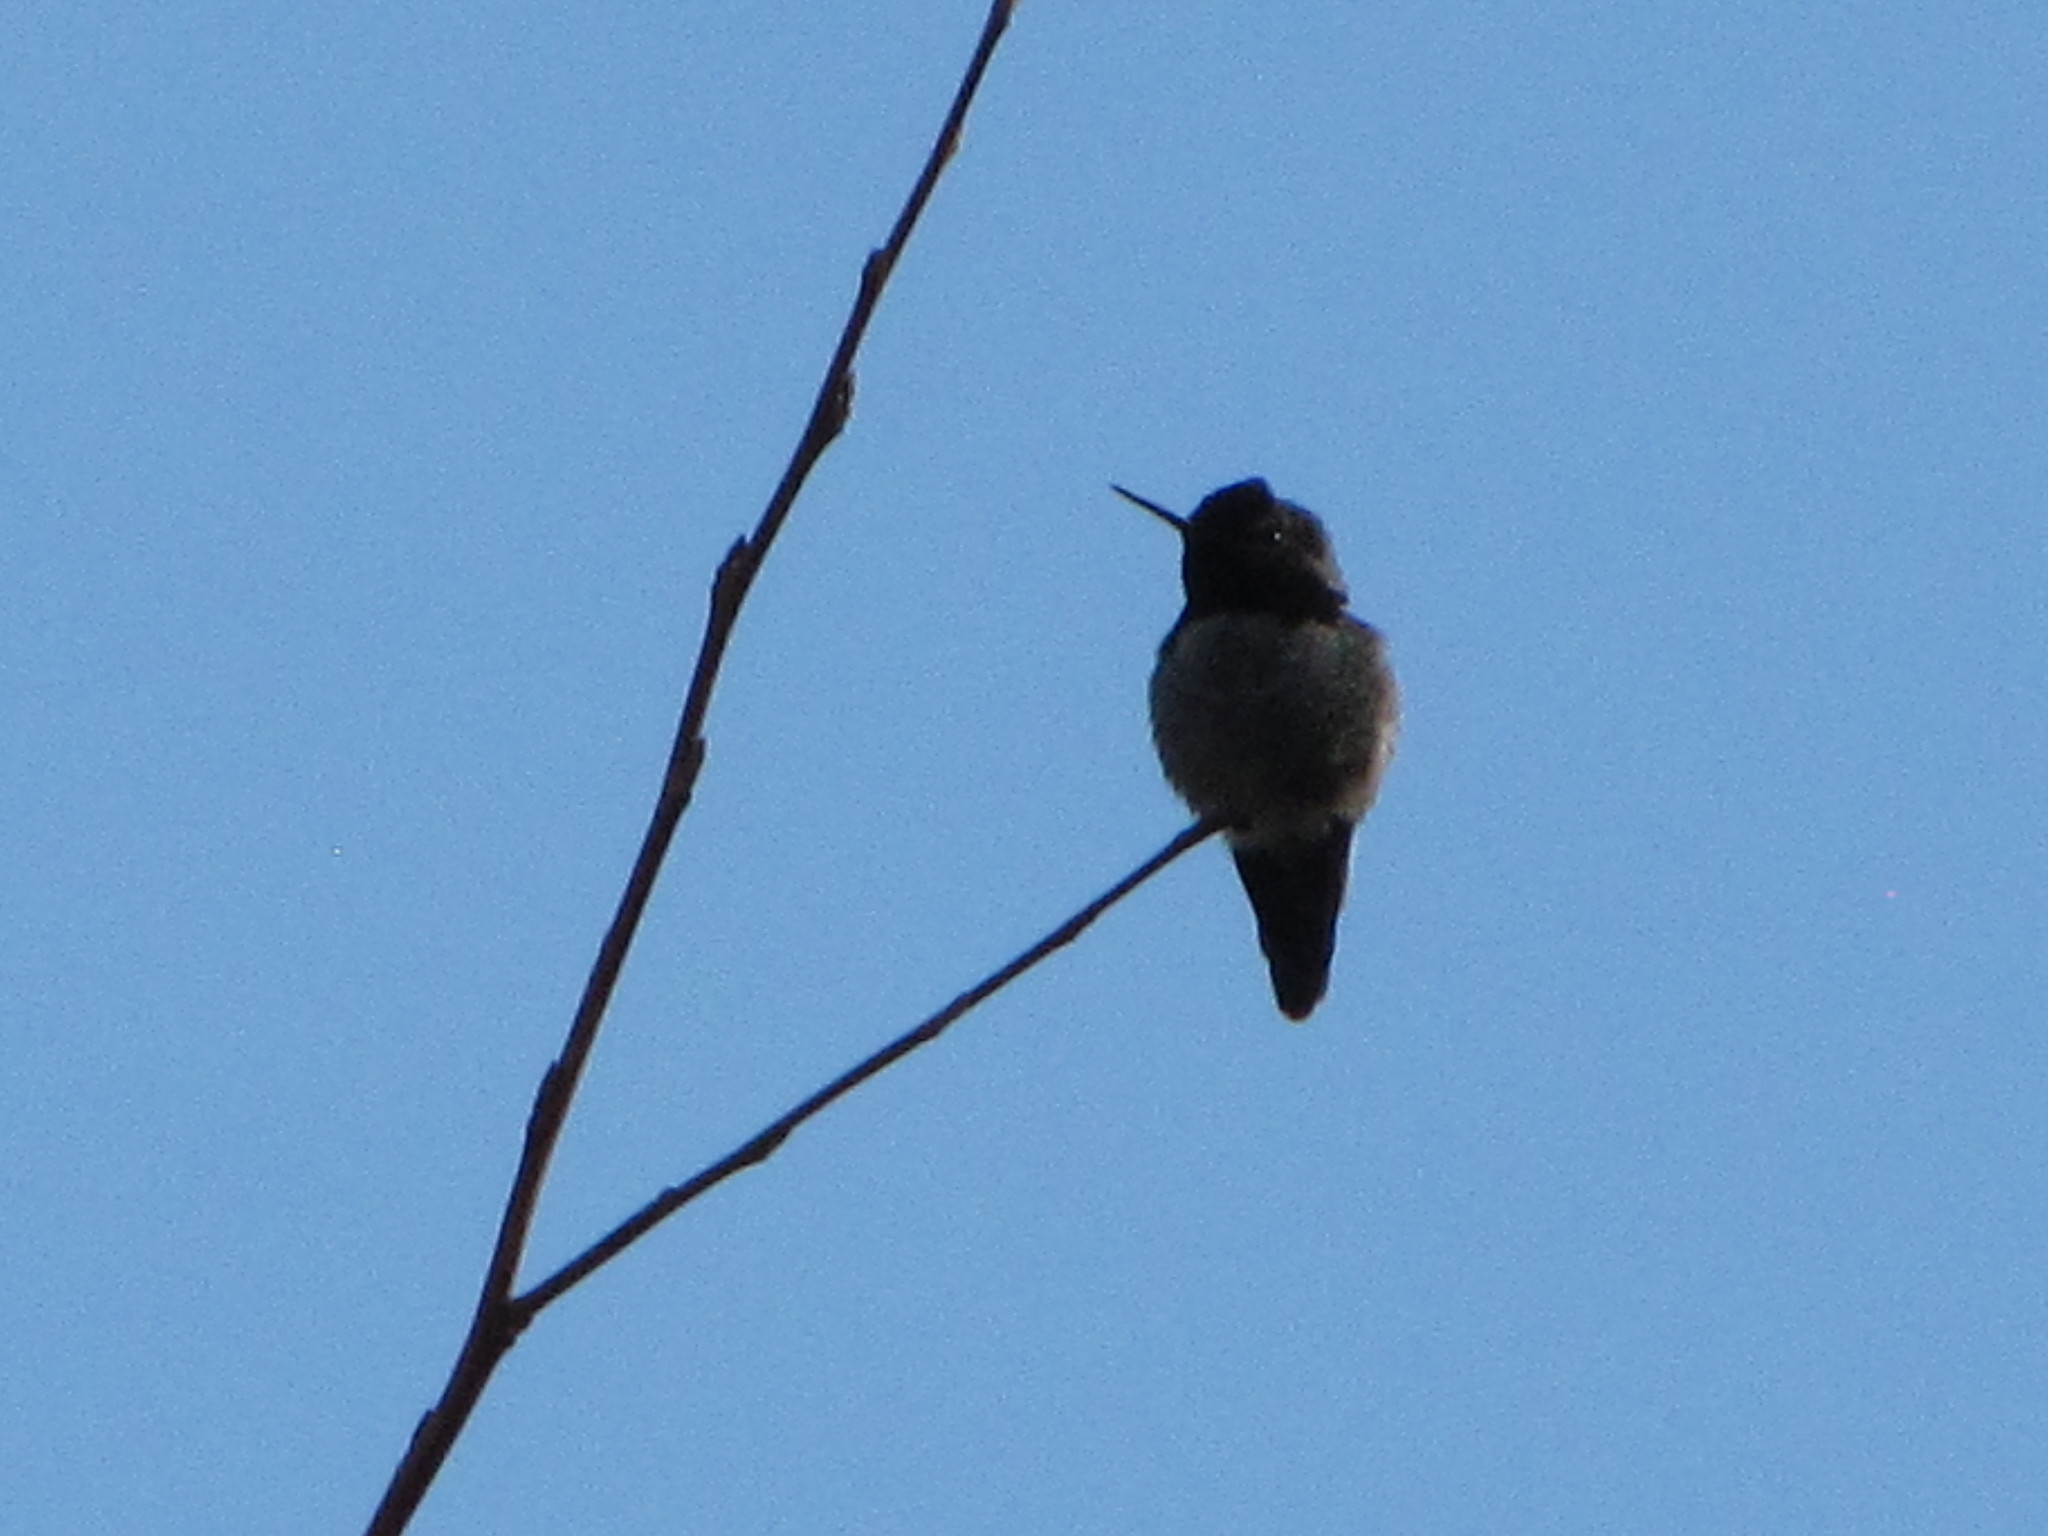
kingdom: Animalia
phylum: Chordata
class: Aves
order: Apodiformes
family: Trochilidae
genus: Calypte
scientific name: Calypte anna
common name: Anna's hummingbird
